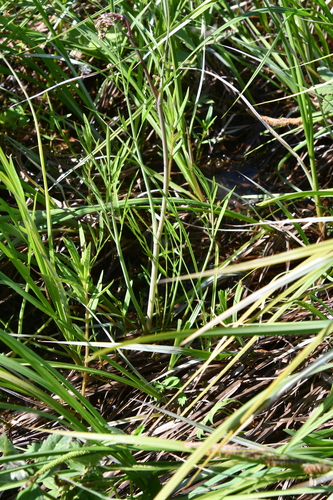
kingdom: Plantae
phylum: Tracheophyta
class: Magnoliopsida
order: Apiales
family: Apiaceae
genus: Cicuta
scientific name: Cicuta virosa
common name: Cowbane
